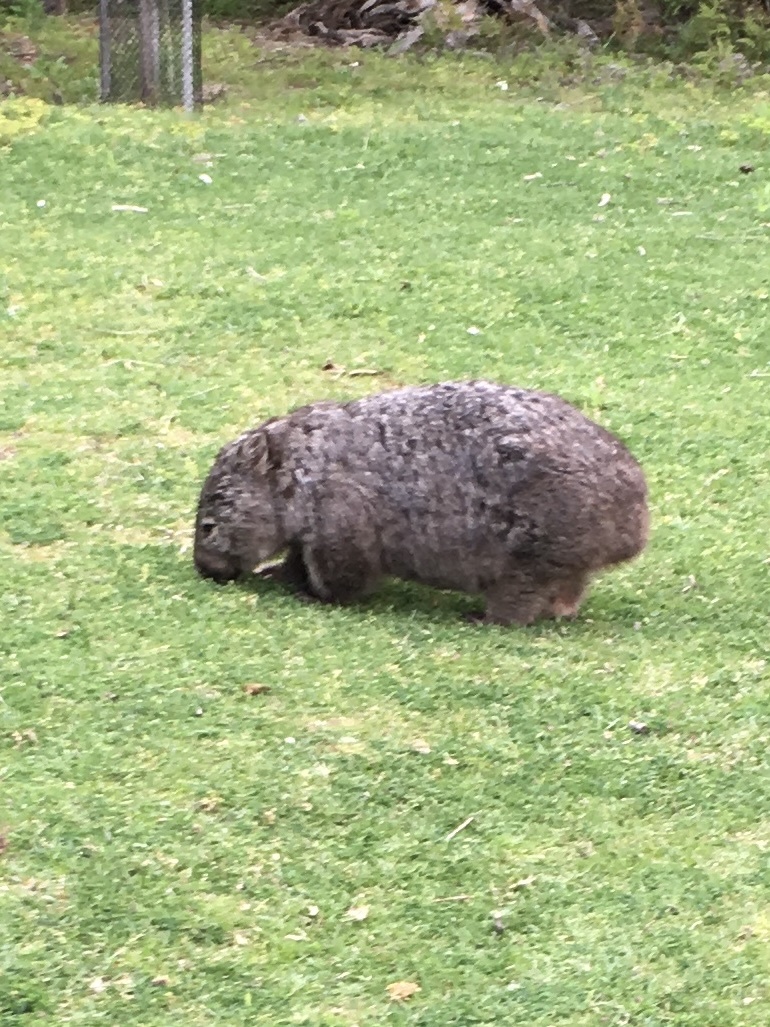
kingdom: Animalia
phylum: Chordata
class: Mammalia
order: Diprotodontia
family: Vombatidae
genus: Vombatus
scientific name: Vombatus ursinus
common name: Common wombat
